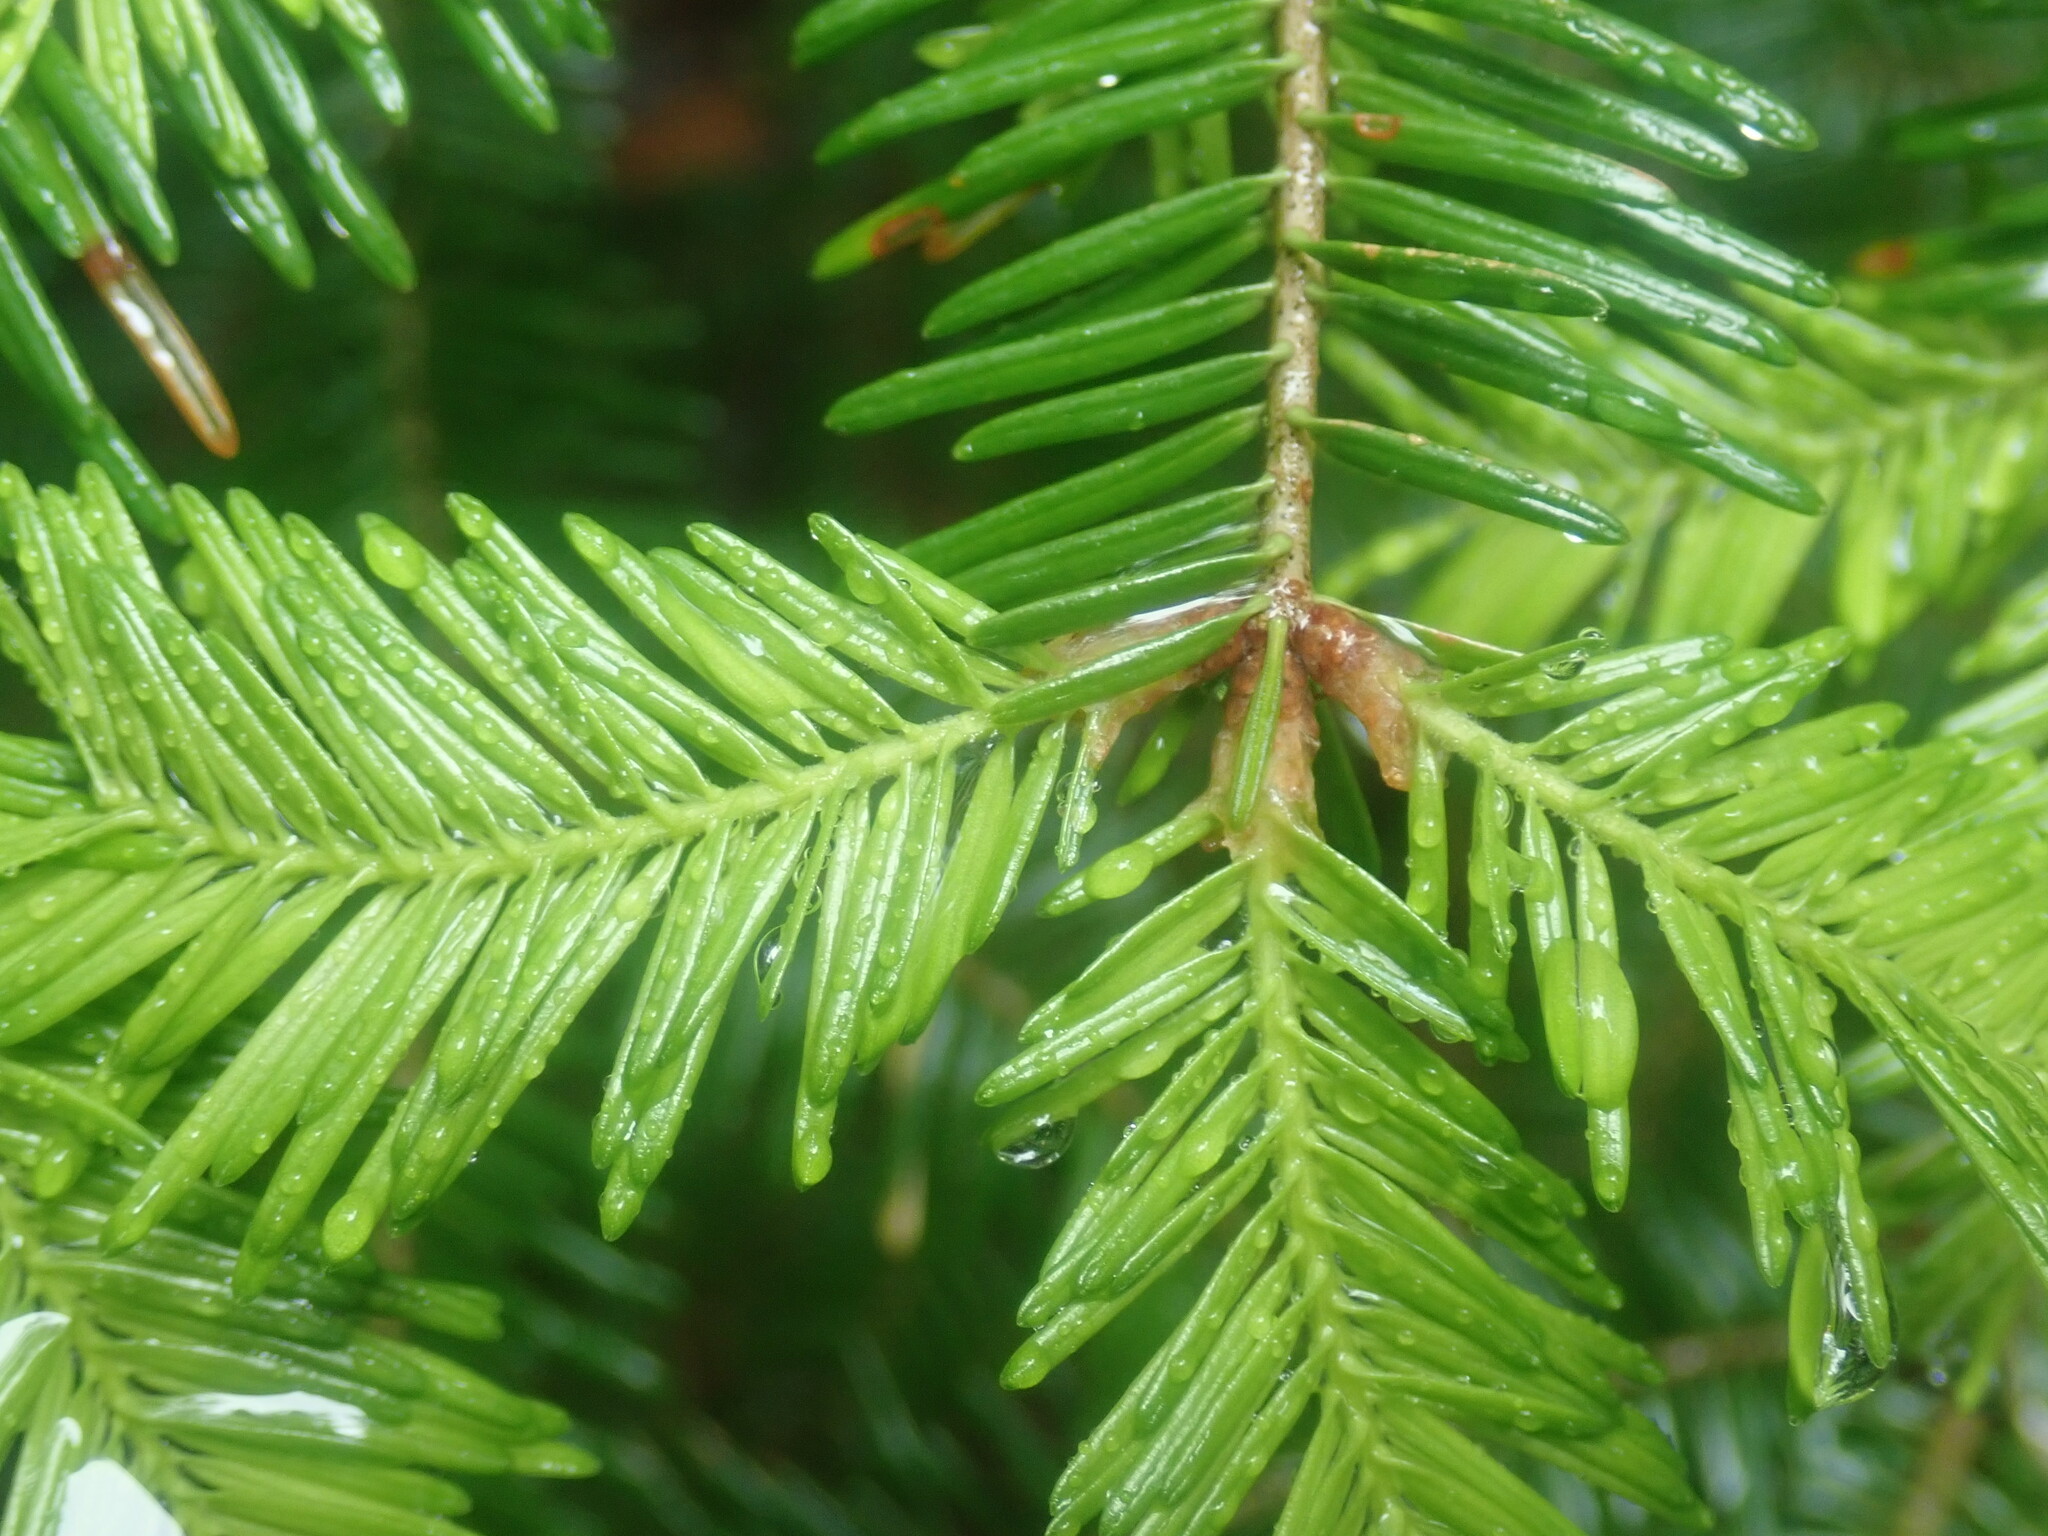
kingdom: Plantae
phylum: Tracheophyta
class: Pinopsida
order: Pinales
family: Pinaceae
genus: Abies
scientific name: Abies balsamea
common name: Balsam fir
